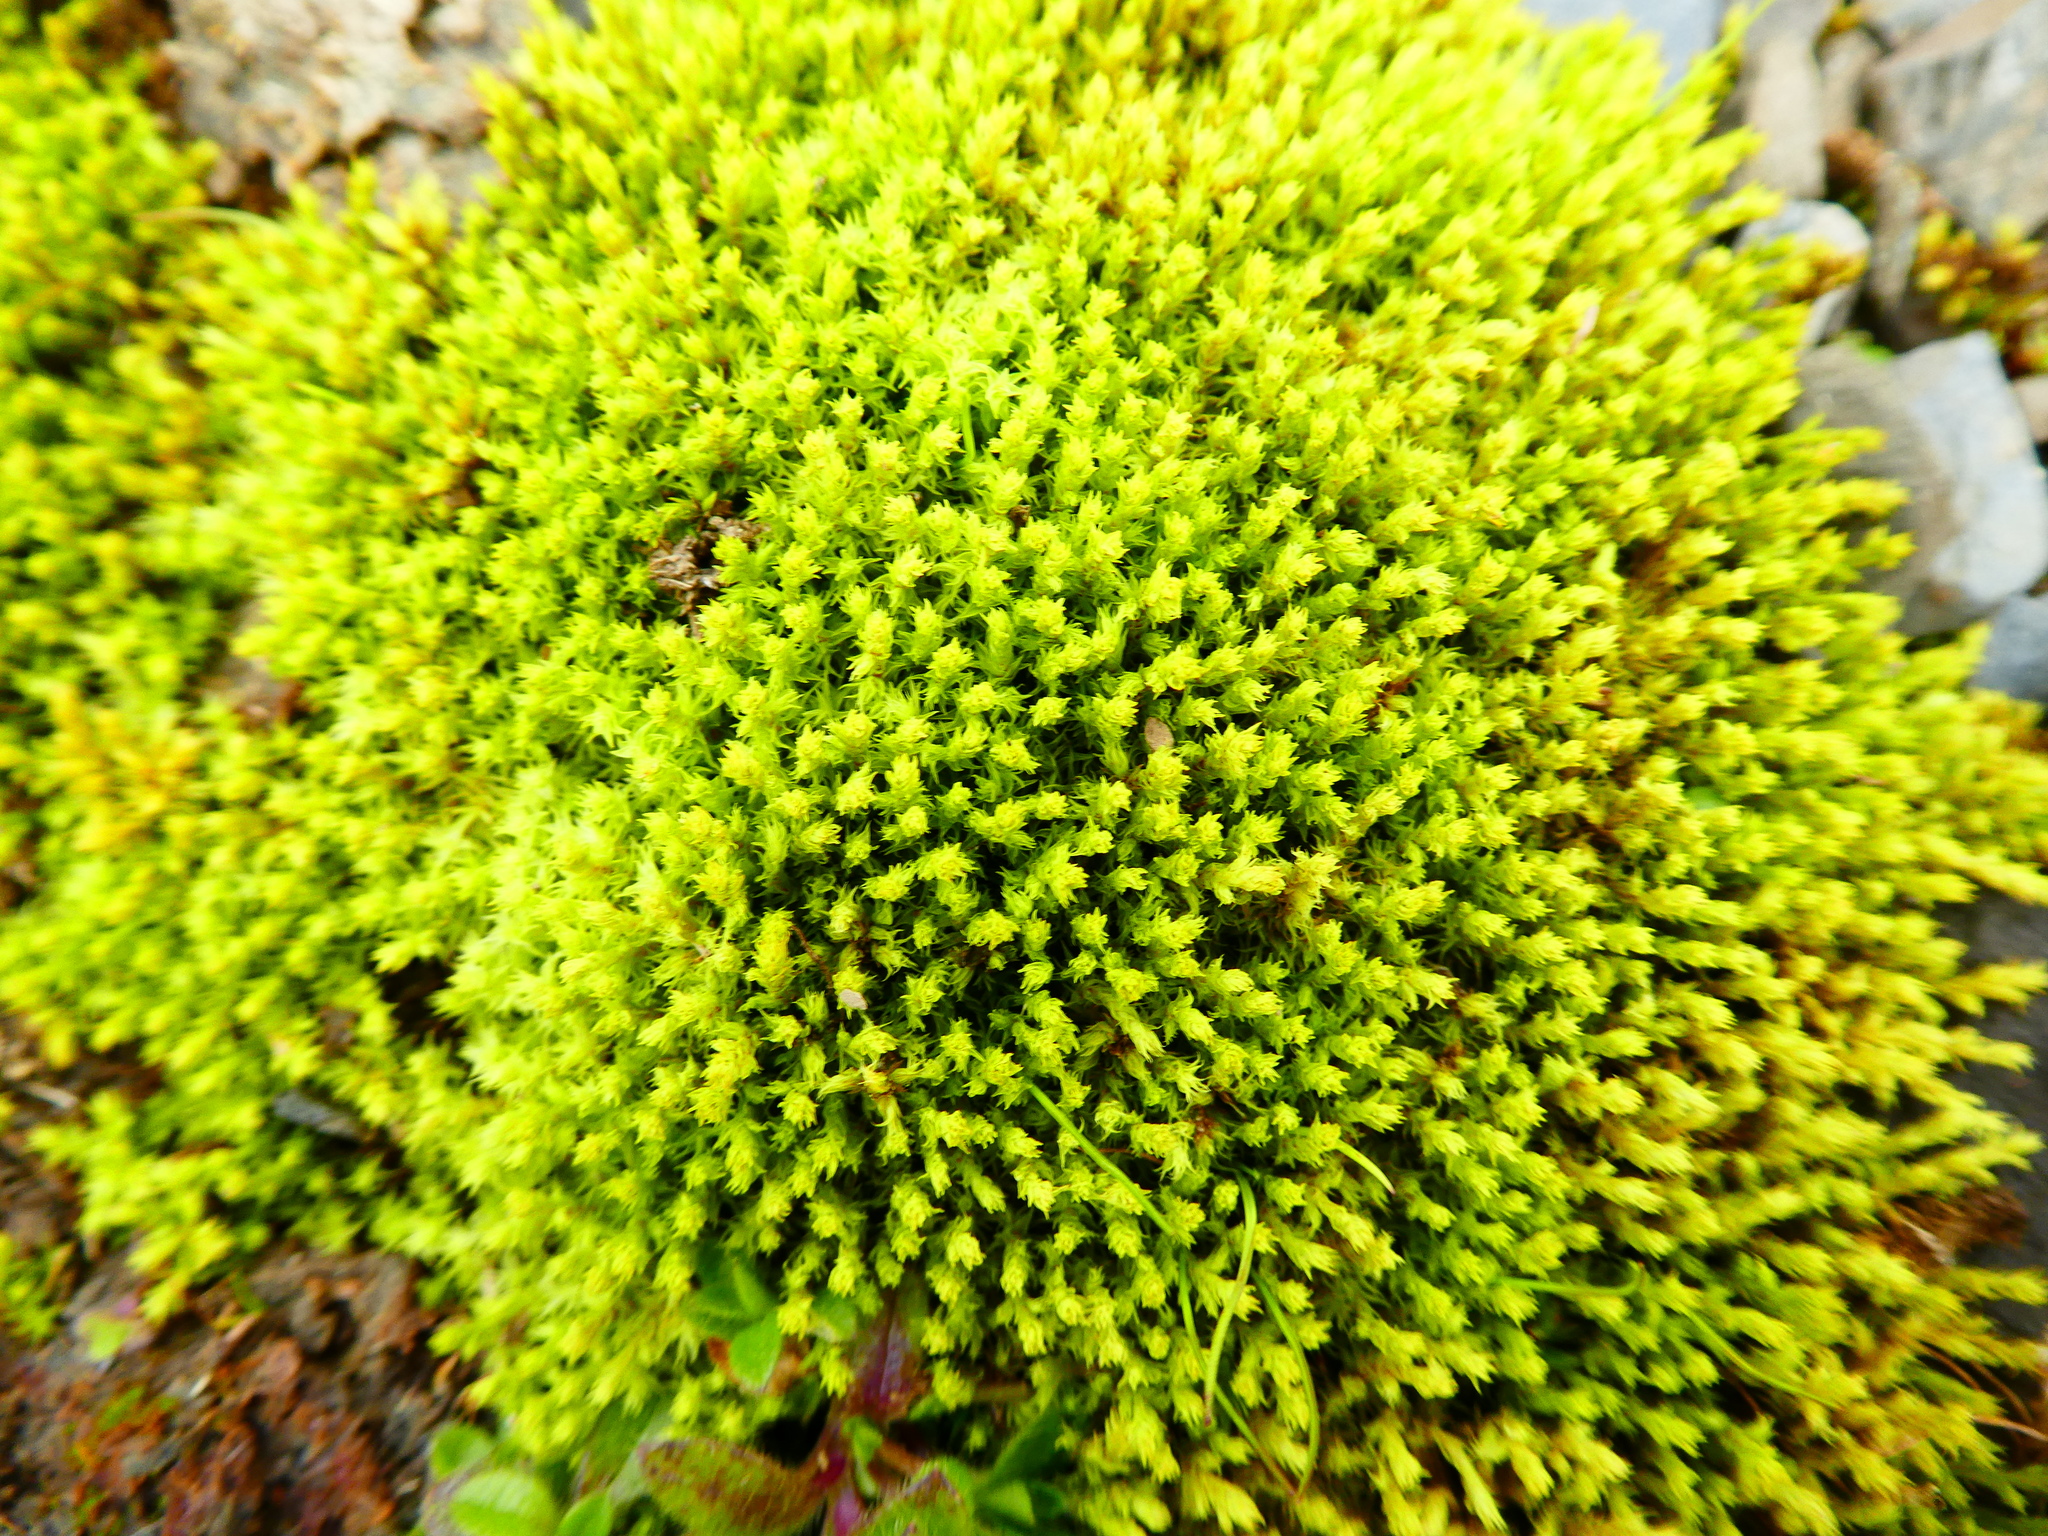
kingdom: Plantae
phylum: Bryophyta
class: Bryopsida
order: Bartramiales
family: Bartramiaceae
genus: Philonotis
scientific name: Philonotis fontana
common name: Fountain apple-moss
